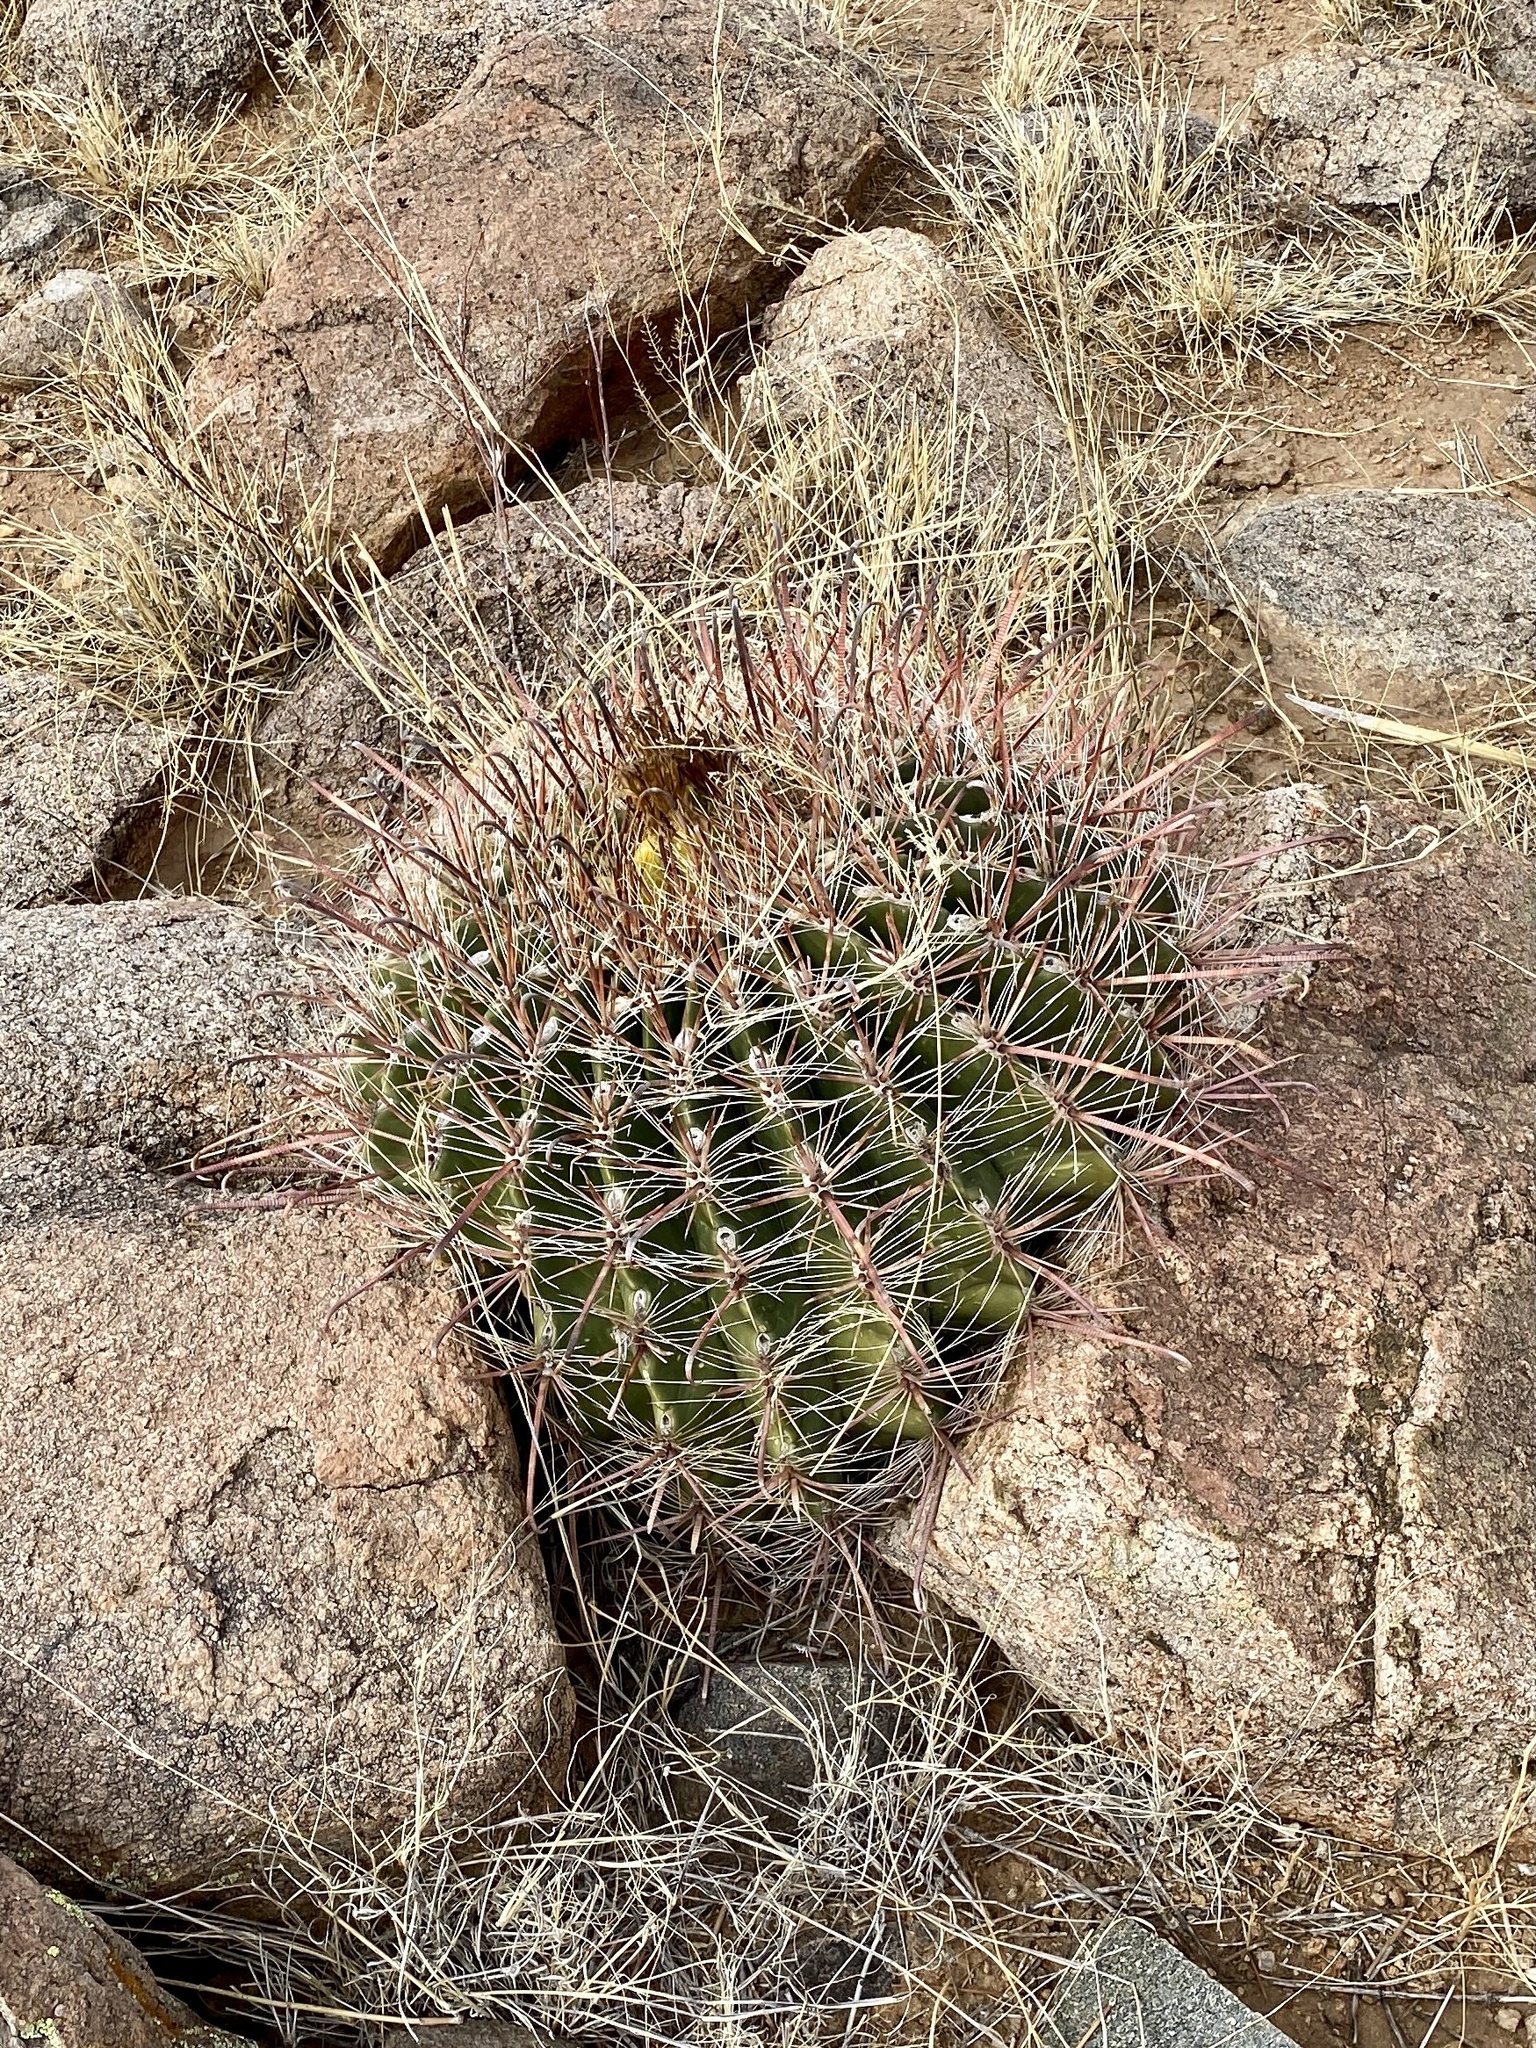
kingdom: Plantae
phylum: Tracheophyta
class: Magnoliopsida
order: Caryophyllales
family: Cactaceae
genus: Ferocactus
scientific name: Ferocactus wislizeni
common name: Candy barrel cactus
